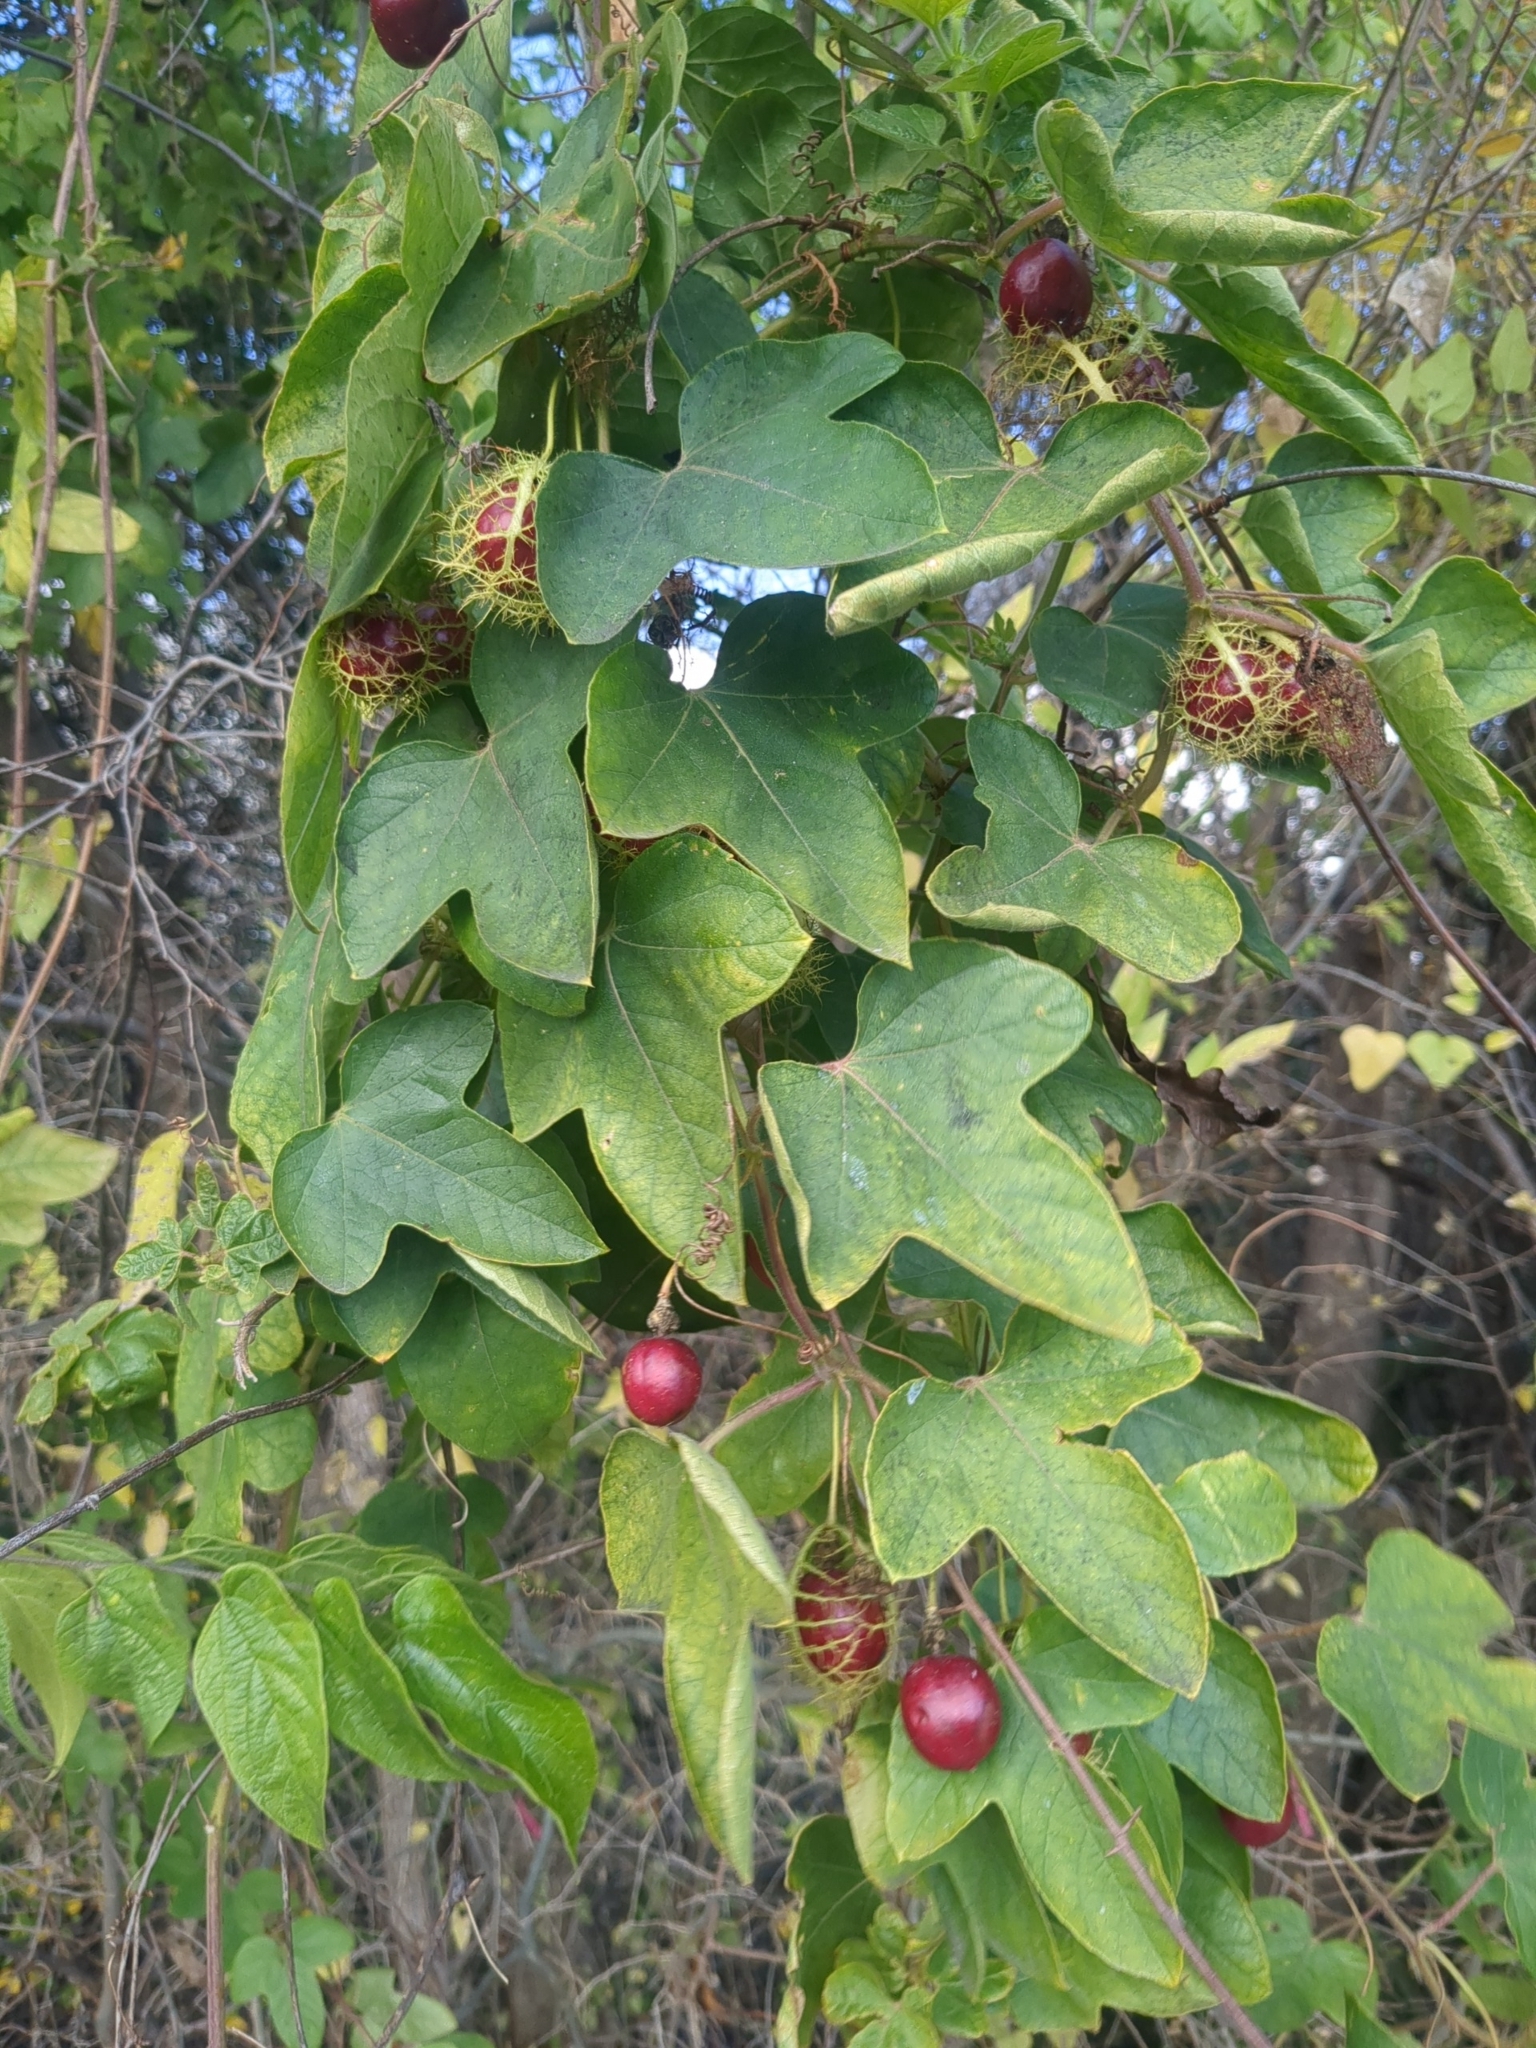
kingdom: Plantae
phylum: Tracheophyta
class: Magnoliopsida
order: Malpighiales
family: Passifloraceae
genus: Passiflora
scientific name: Passiflora
